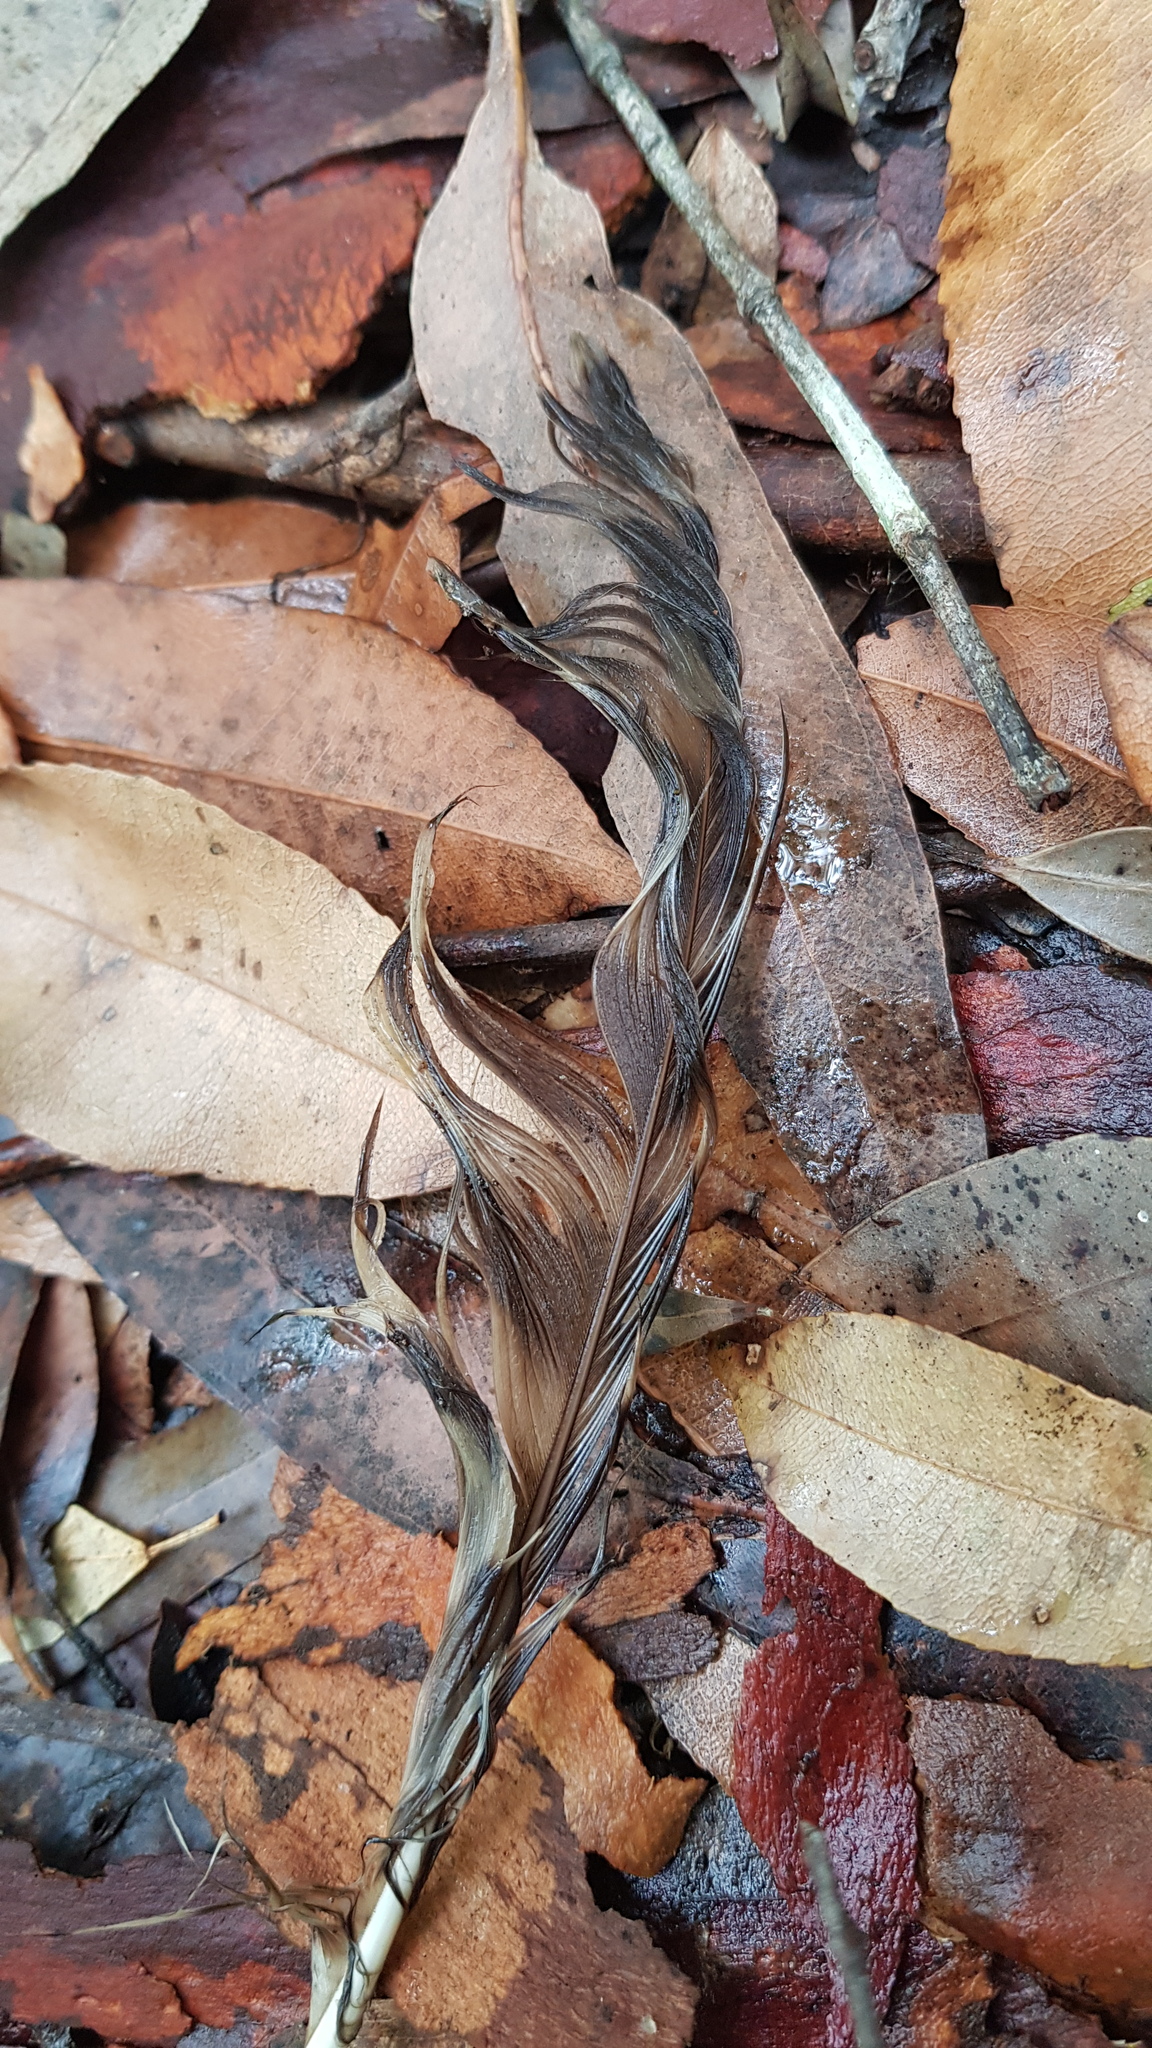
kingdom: Animalia
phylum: Chordata
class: Aves
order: Strigiformes
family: Strigidae
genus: Ninox
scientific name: Ninox strenua
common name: Powerful owl
